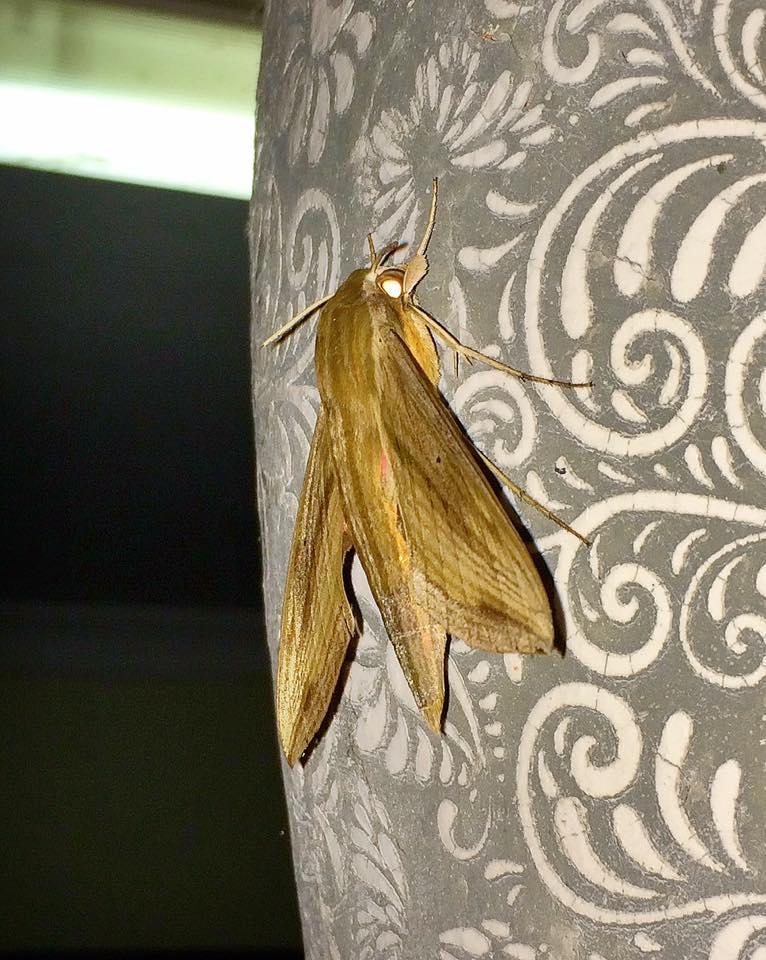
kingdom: Animalia
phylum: Arthropoda
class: Insecta
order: Lepidoptera
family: Sphingidae
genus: Hippotion
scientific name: Hippotion eson
